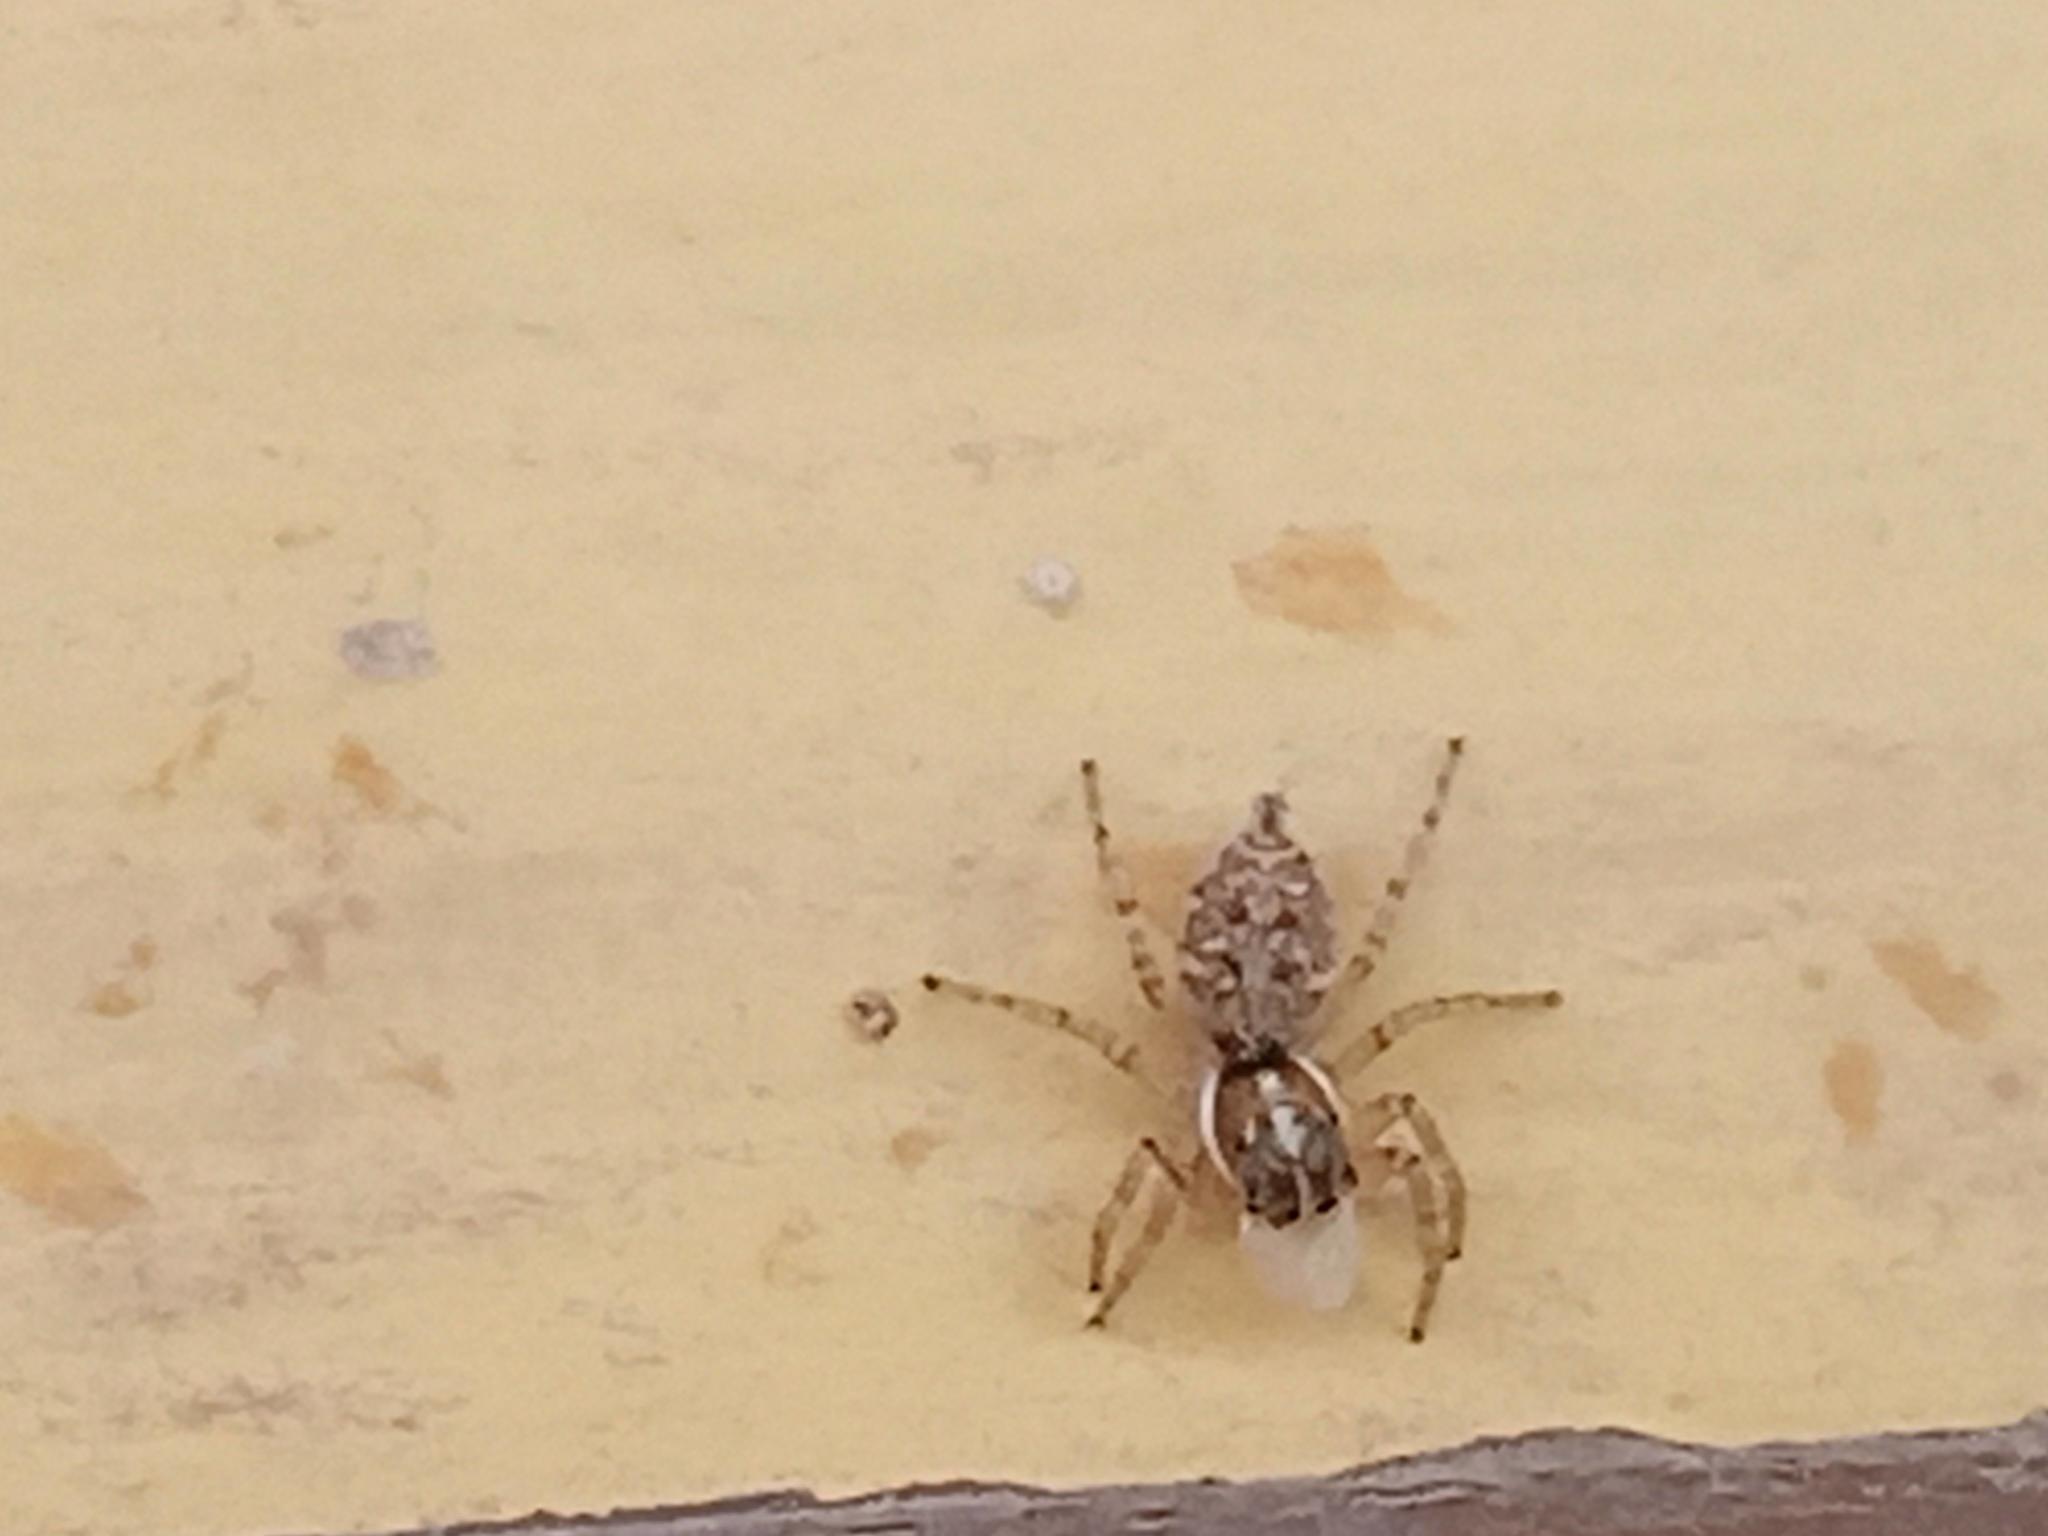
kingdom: Animalia
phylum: Arthropoda
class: Arachnida
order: Araneae
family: Salticidae
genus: Menemerus
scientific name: Menemerus semilimbatus
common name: Jumping spider
